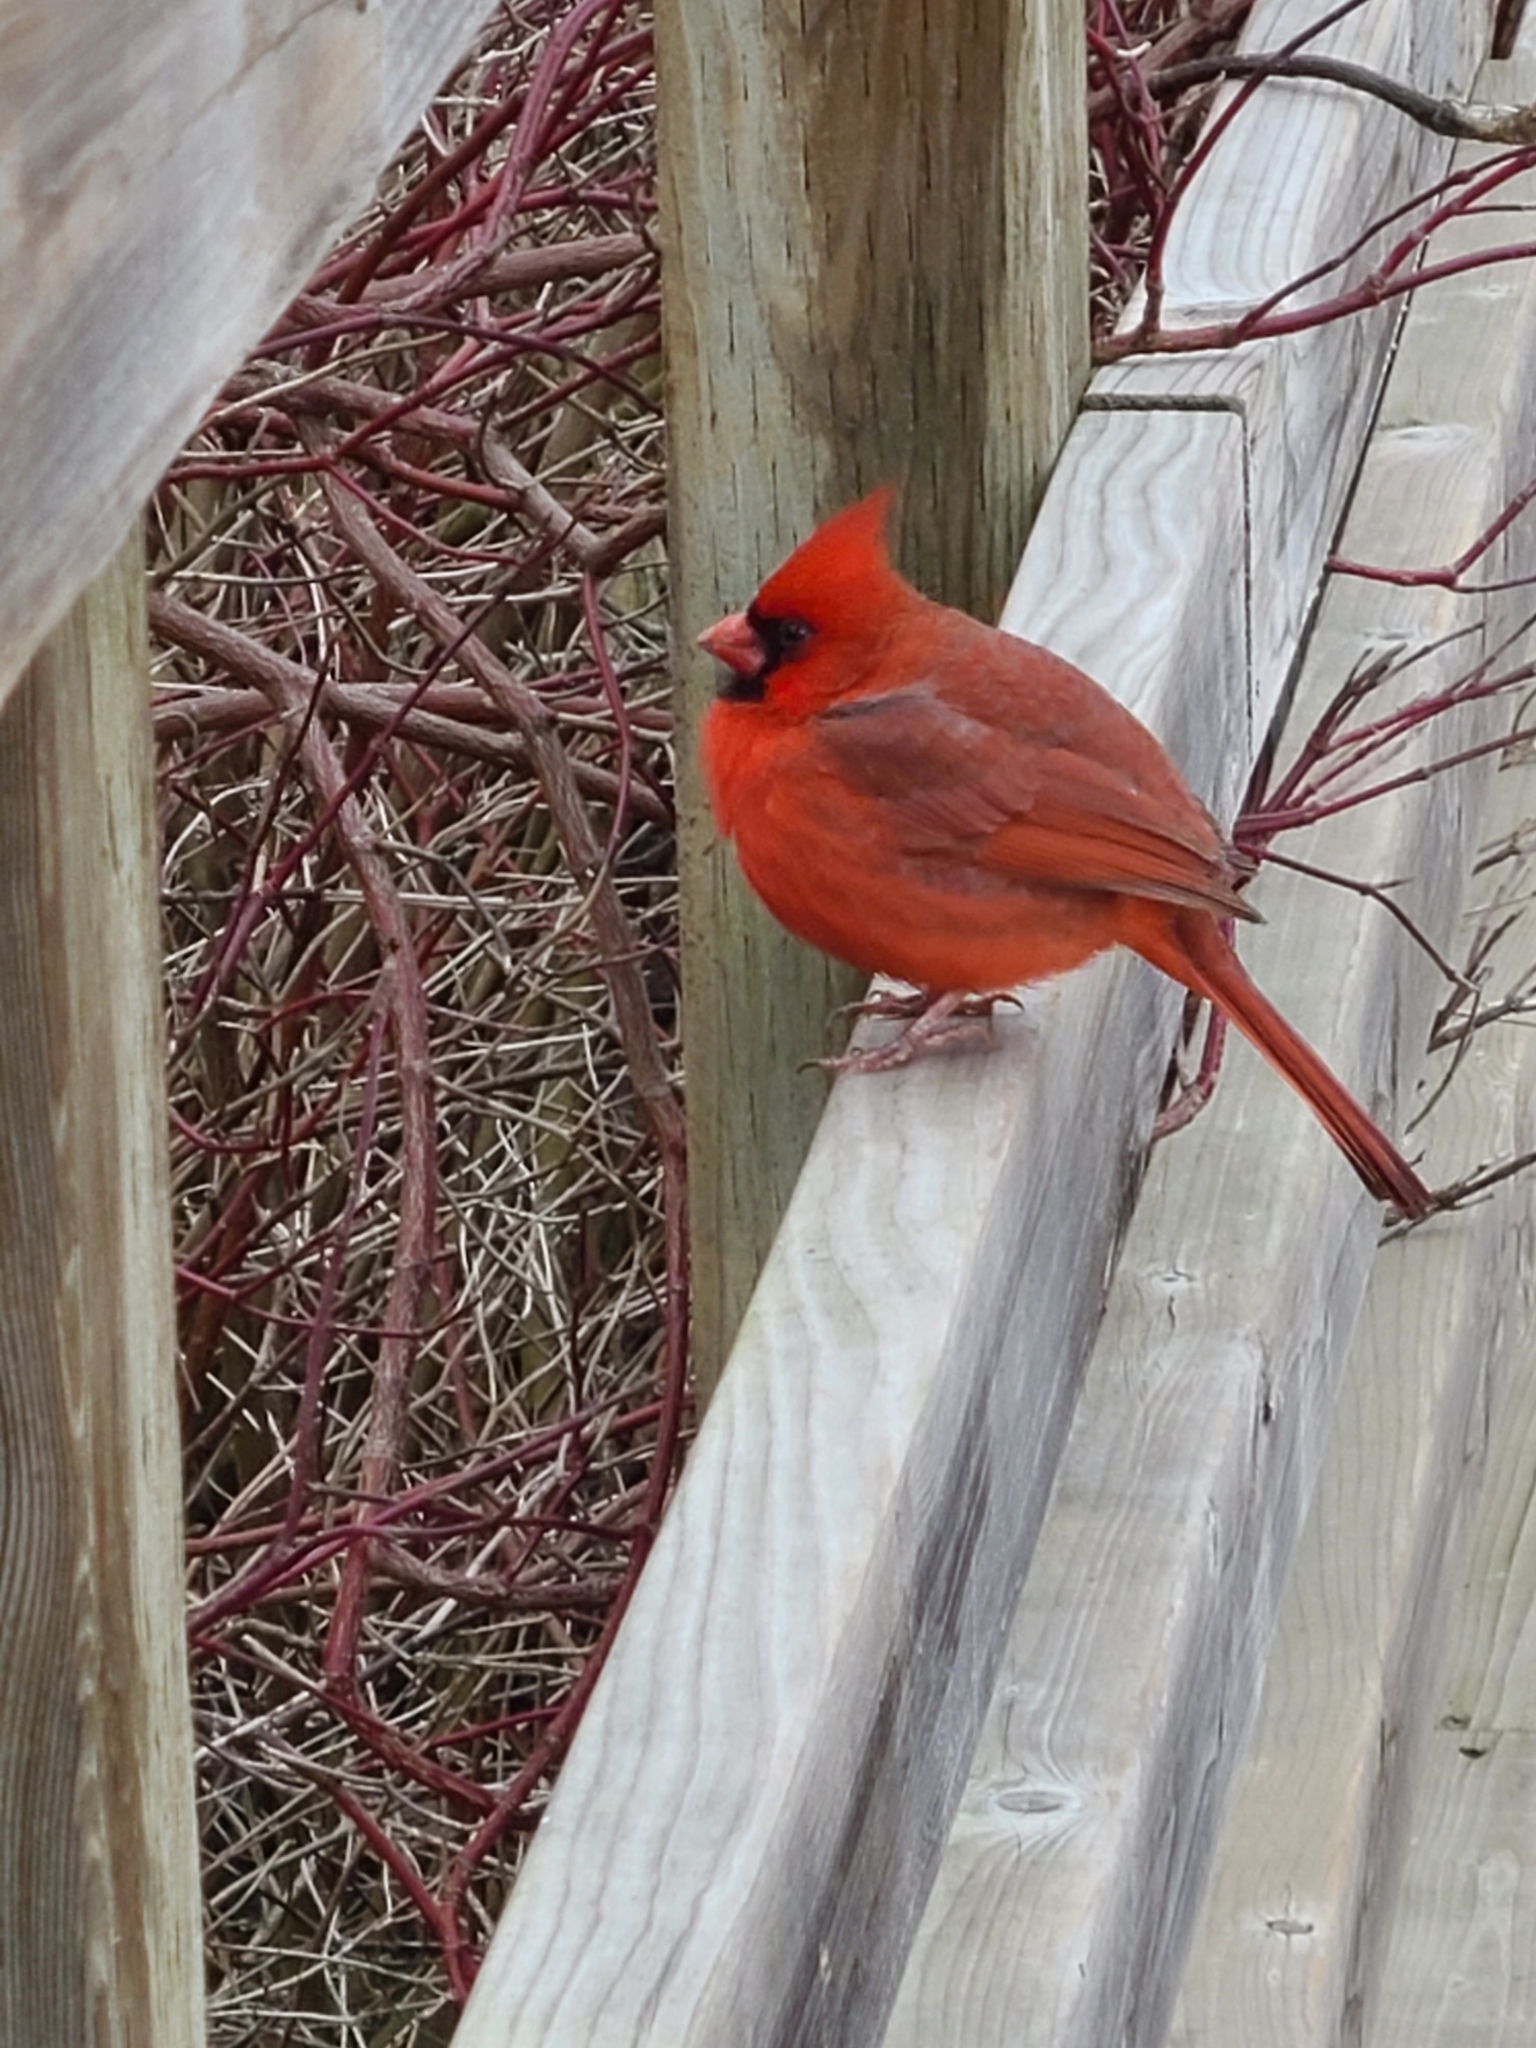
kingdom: Animalia
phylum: Chordata
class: Aves
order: Passeriformes
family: Cardinalidae
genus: Cardinalis
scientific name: Cardinalis cardinalis
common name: Northern cardinal
